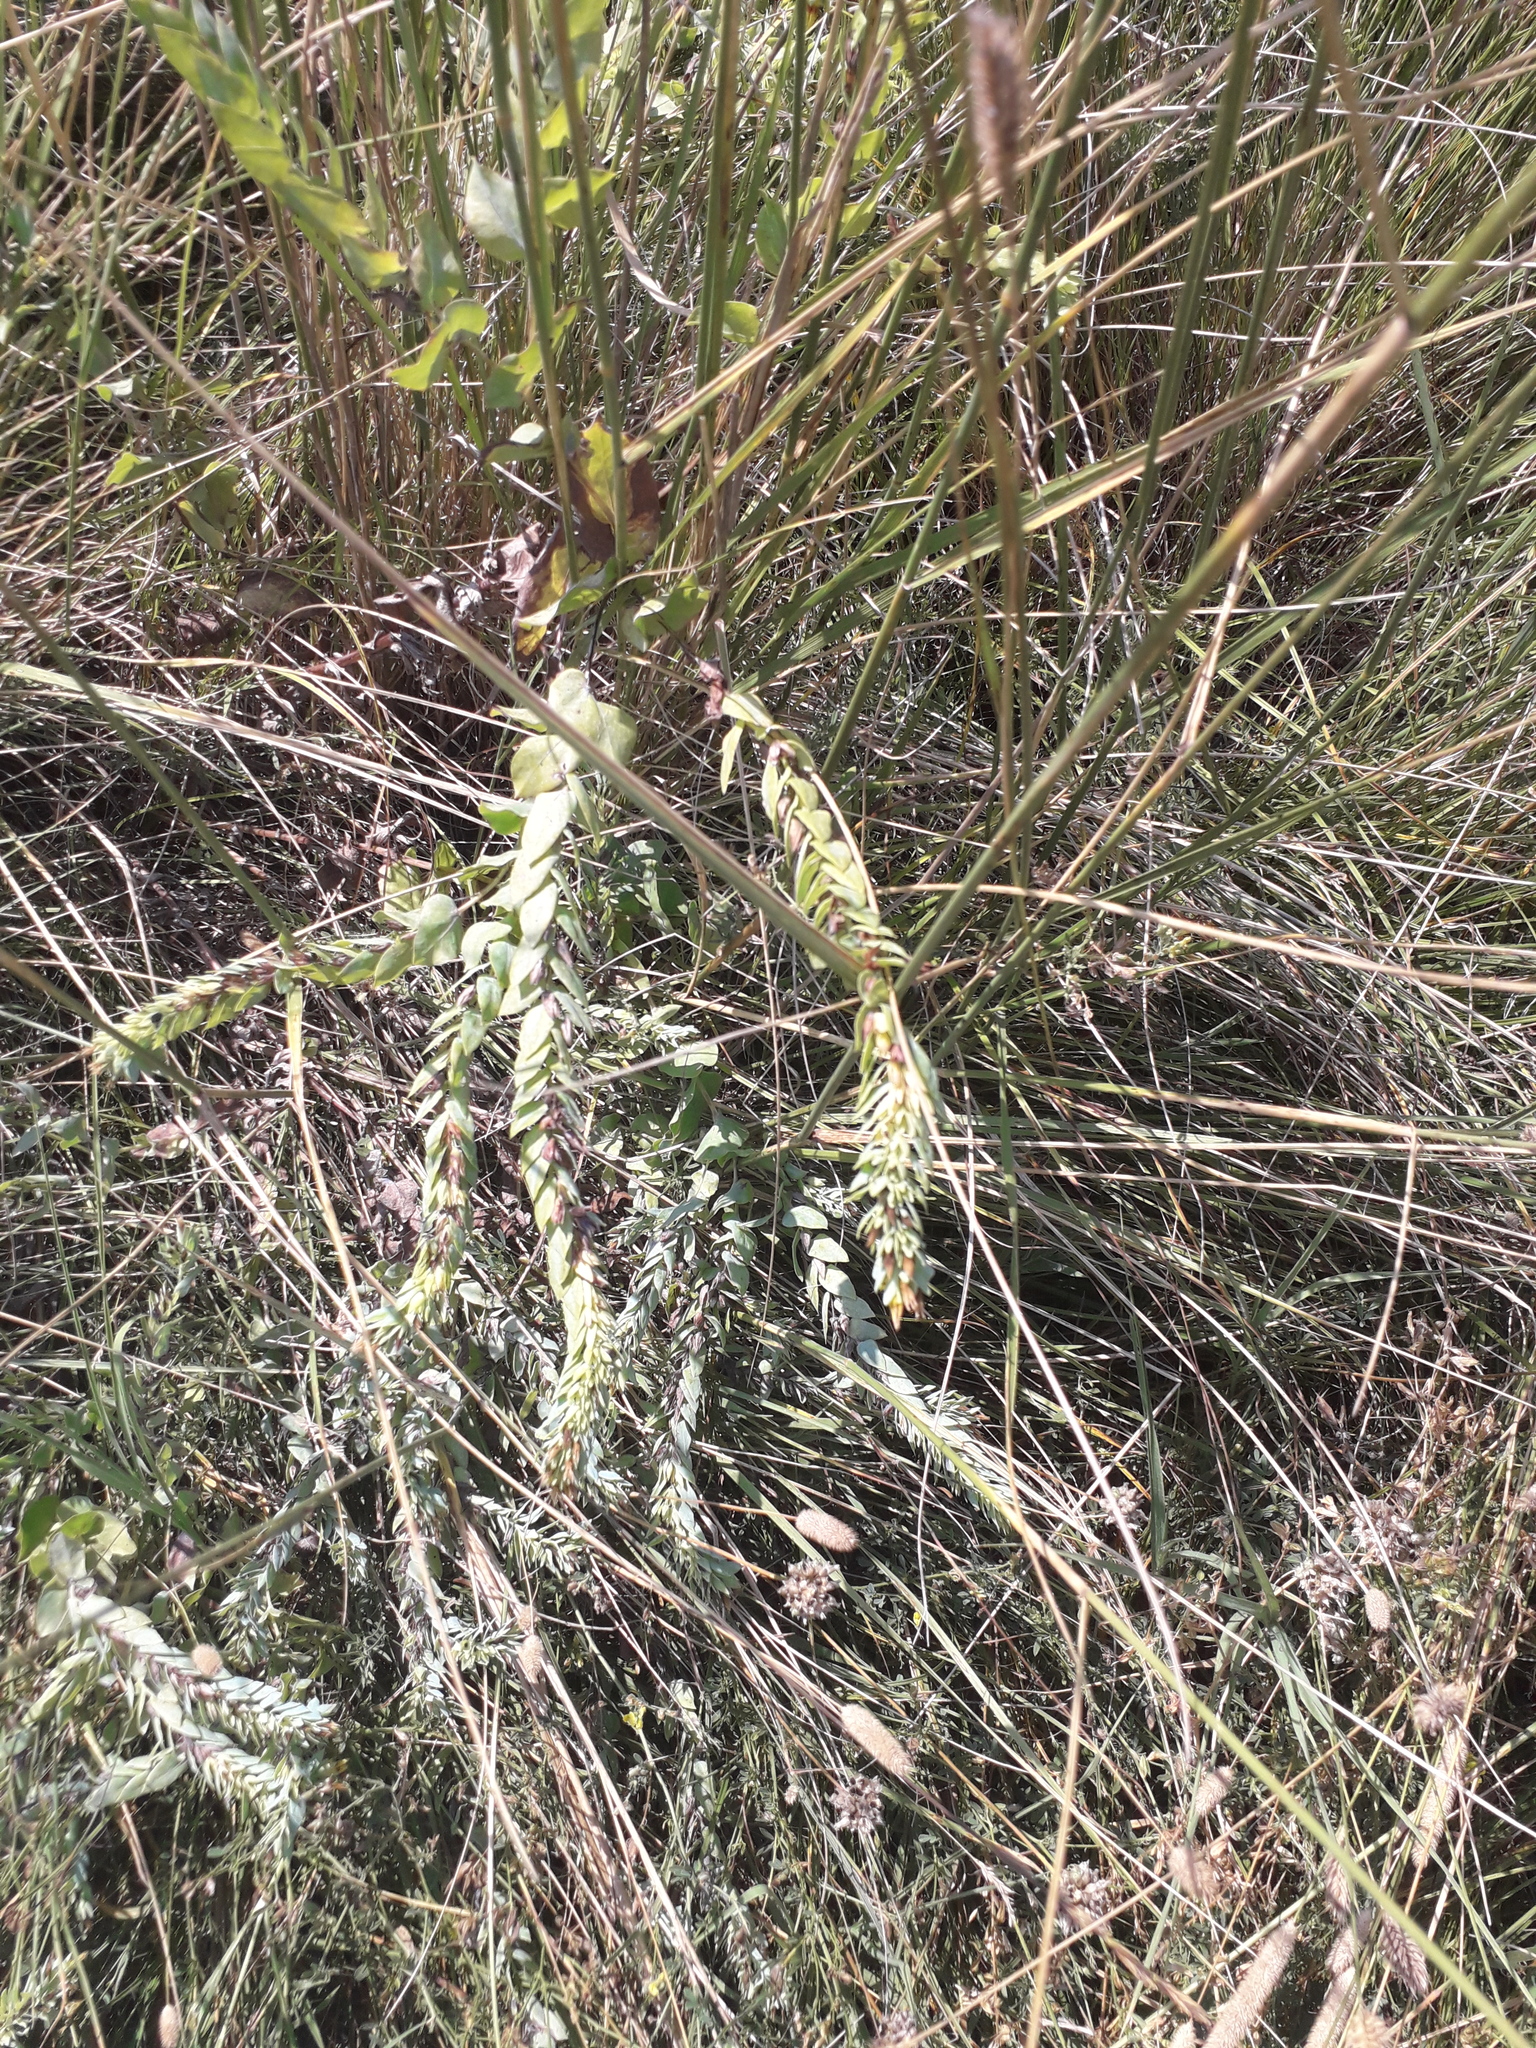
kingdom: Plantae
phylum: Tracheophyta
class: Magnoliopsida
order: Boraginales
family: Boraginaceae
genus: Cerinthe
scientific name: Cerinthe minor
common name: Lesser honeywort
